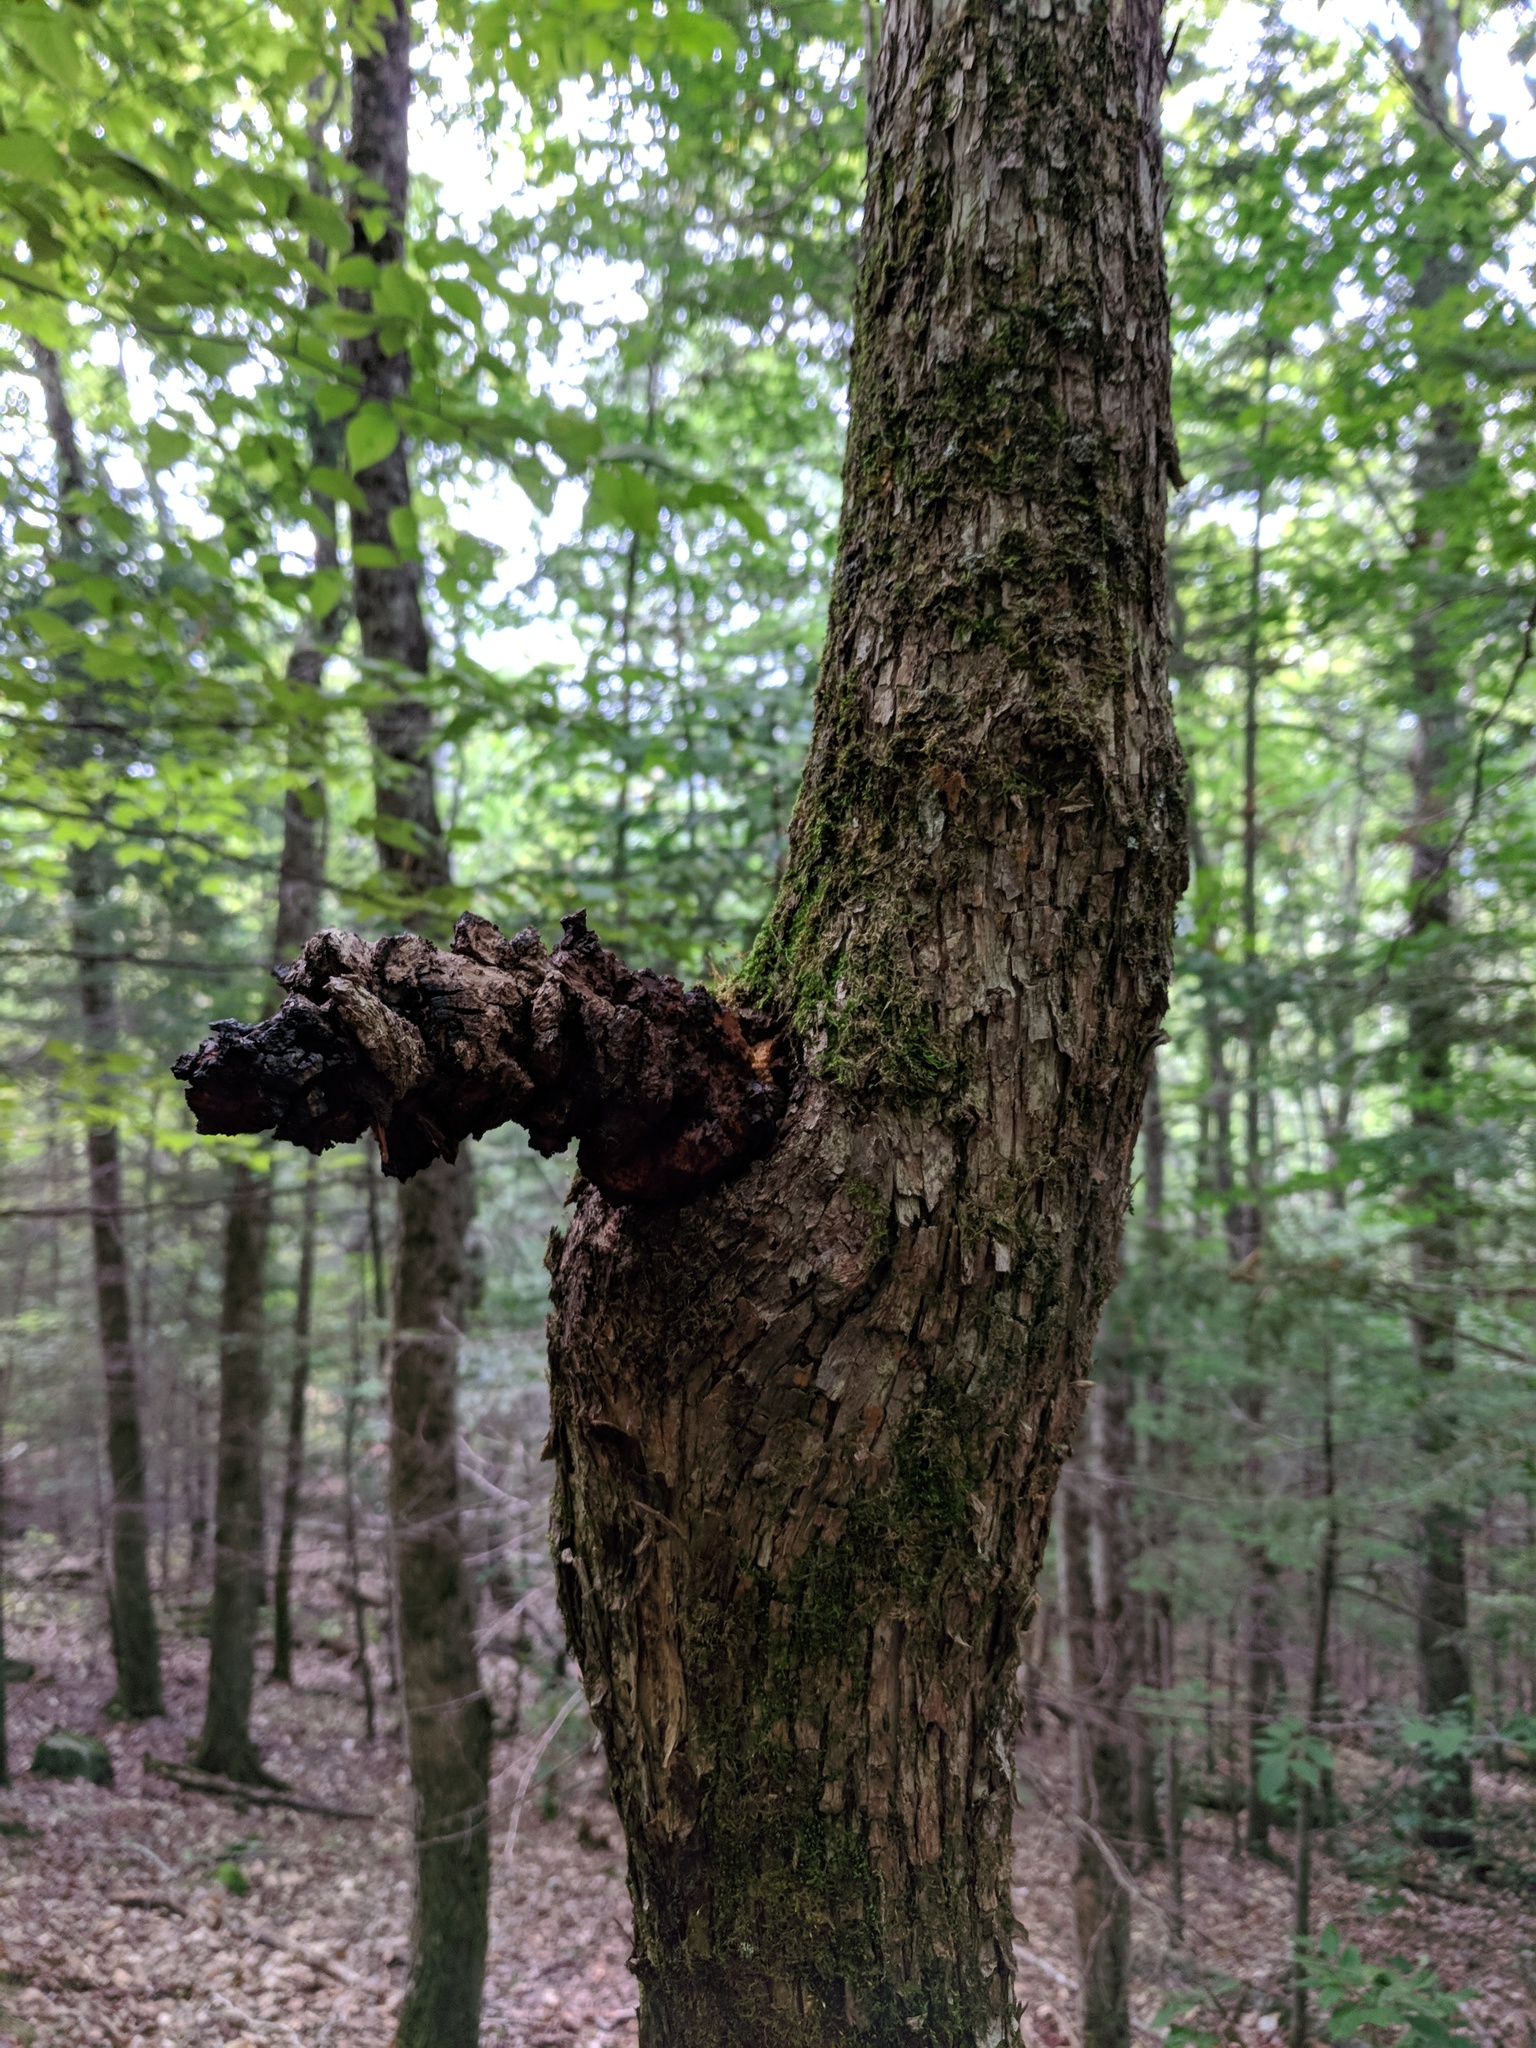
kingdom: Fungi
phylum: Basidiomycota
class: Agaricomycetes
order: Hymenochaetales
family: Hymenochaetaceae
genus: Inonotus
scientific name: Inonotus obliquus
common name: Chaga
